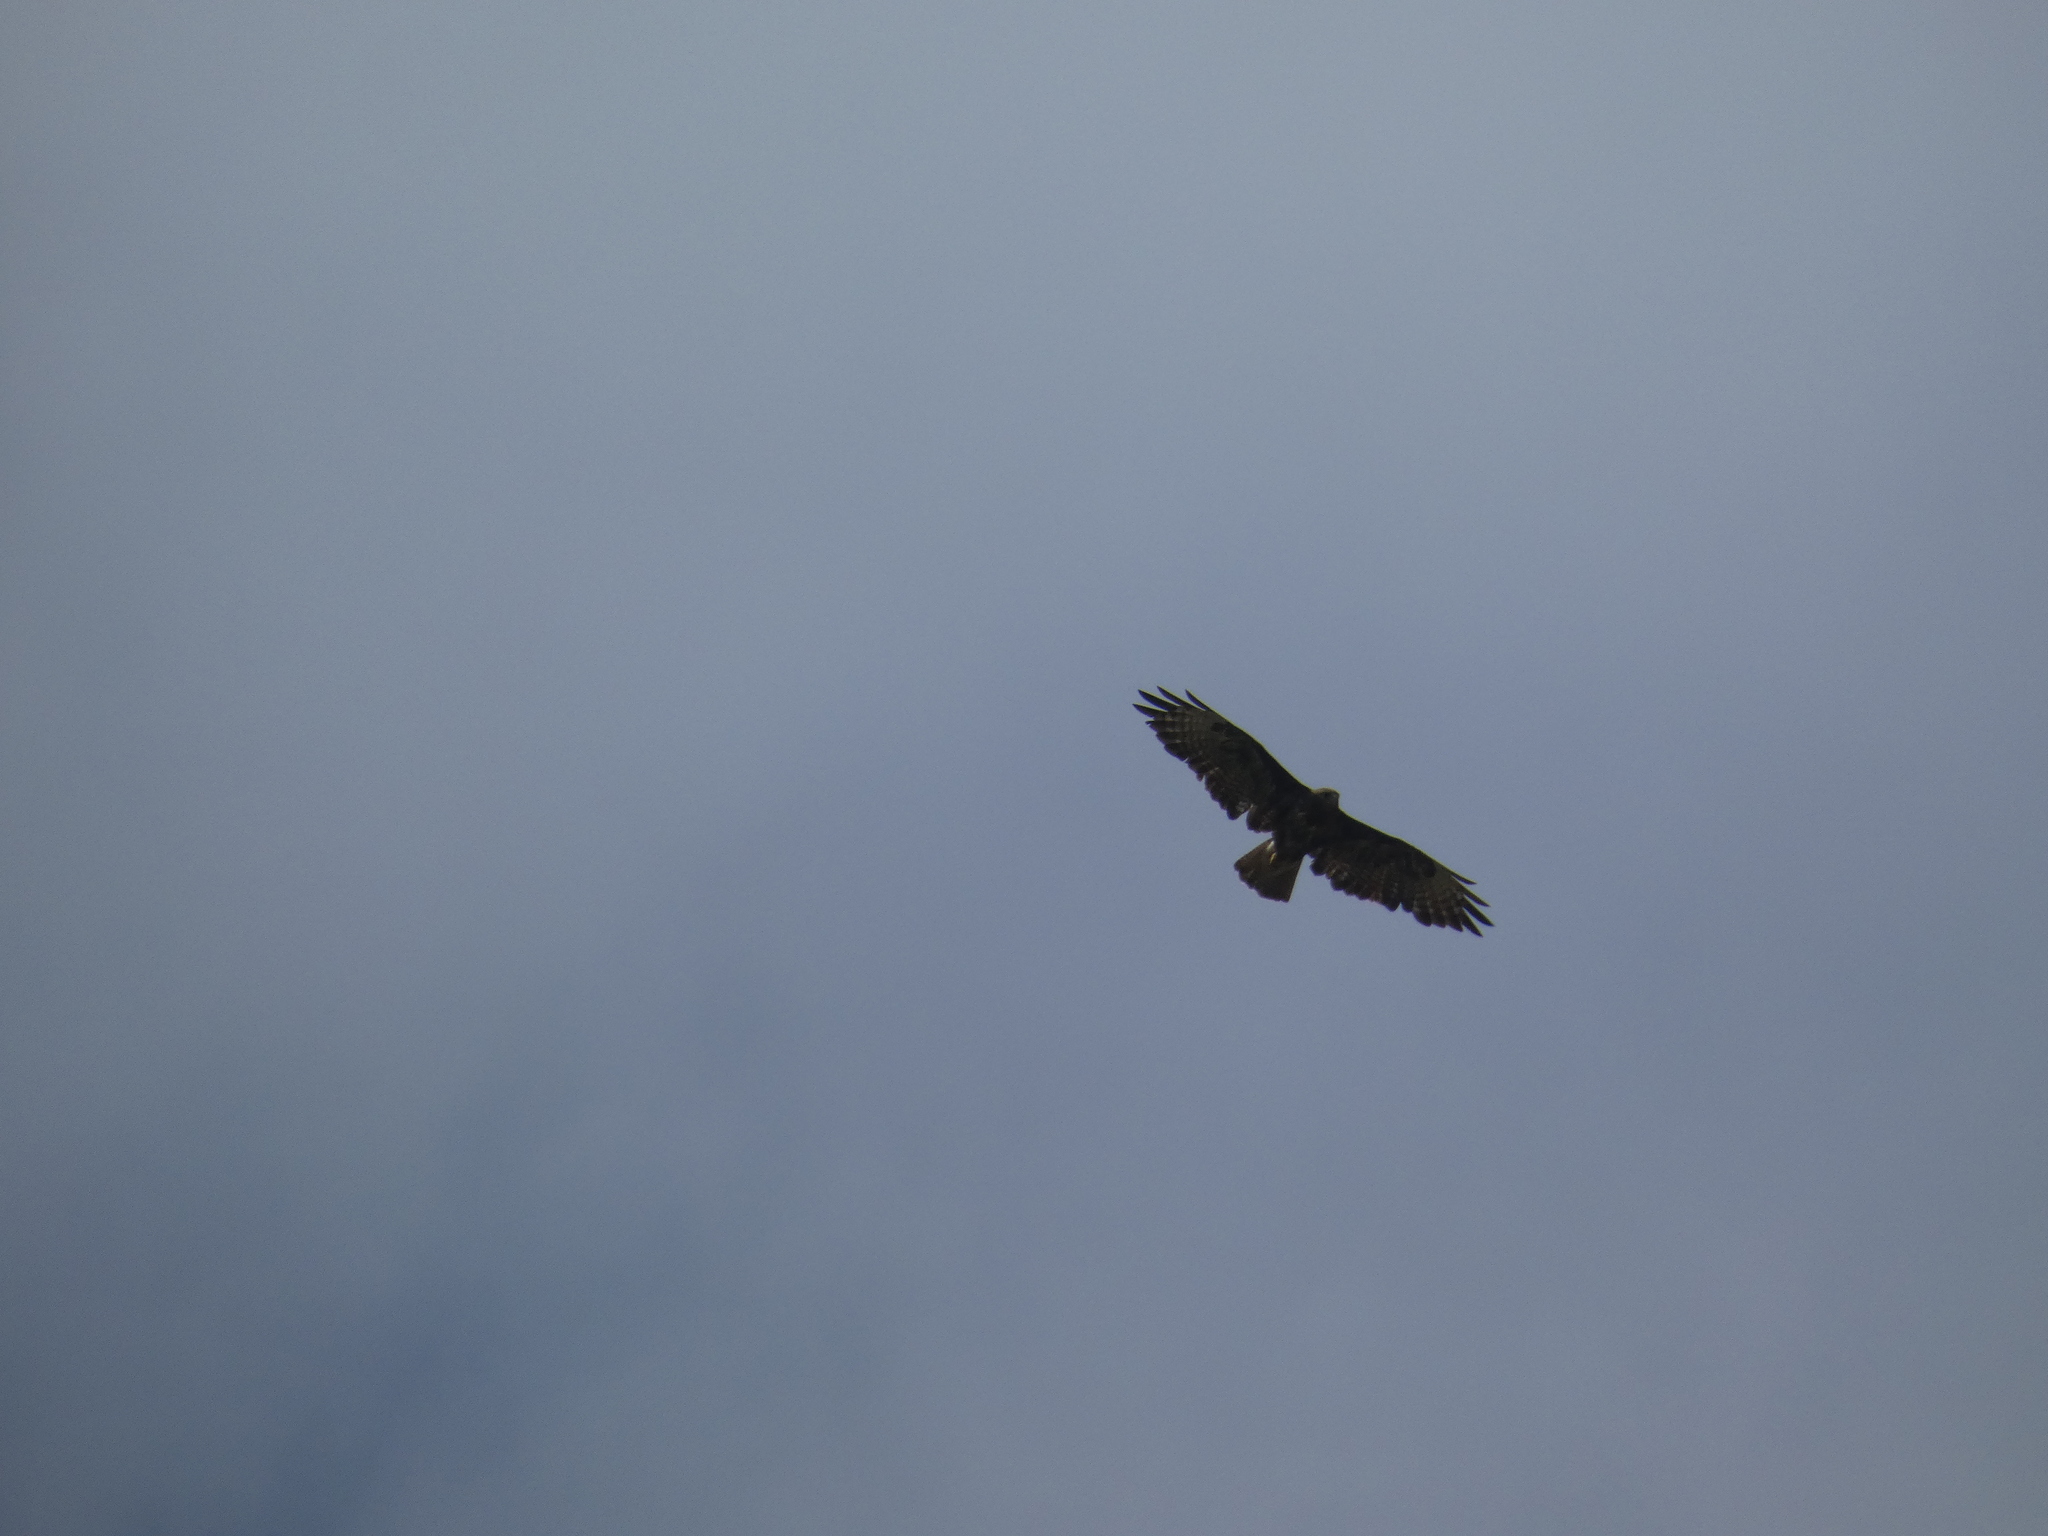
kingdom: Animalia
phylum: Chordata
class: Aves
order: Accipitriformes
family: Accipitridae
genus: Buteo
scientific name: Buteo buteo
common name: Common buzzard
